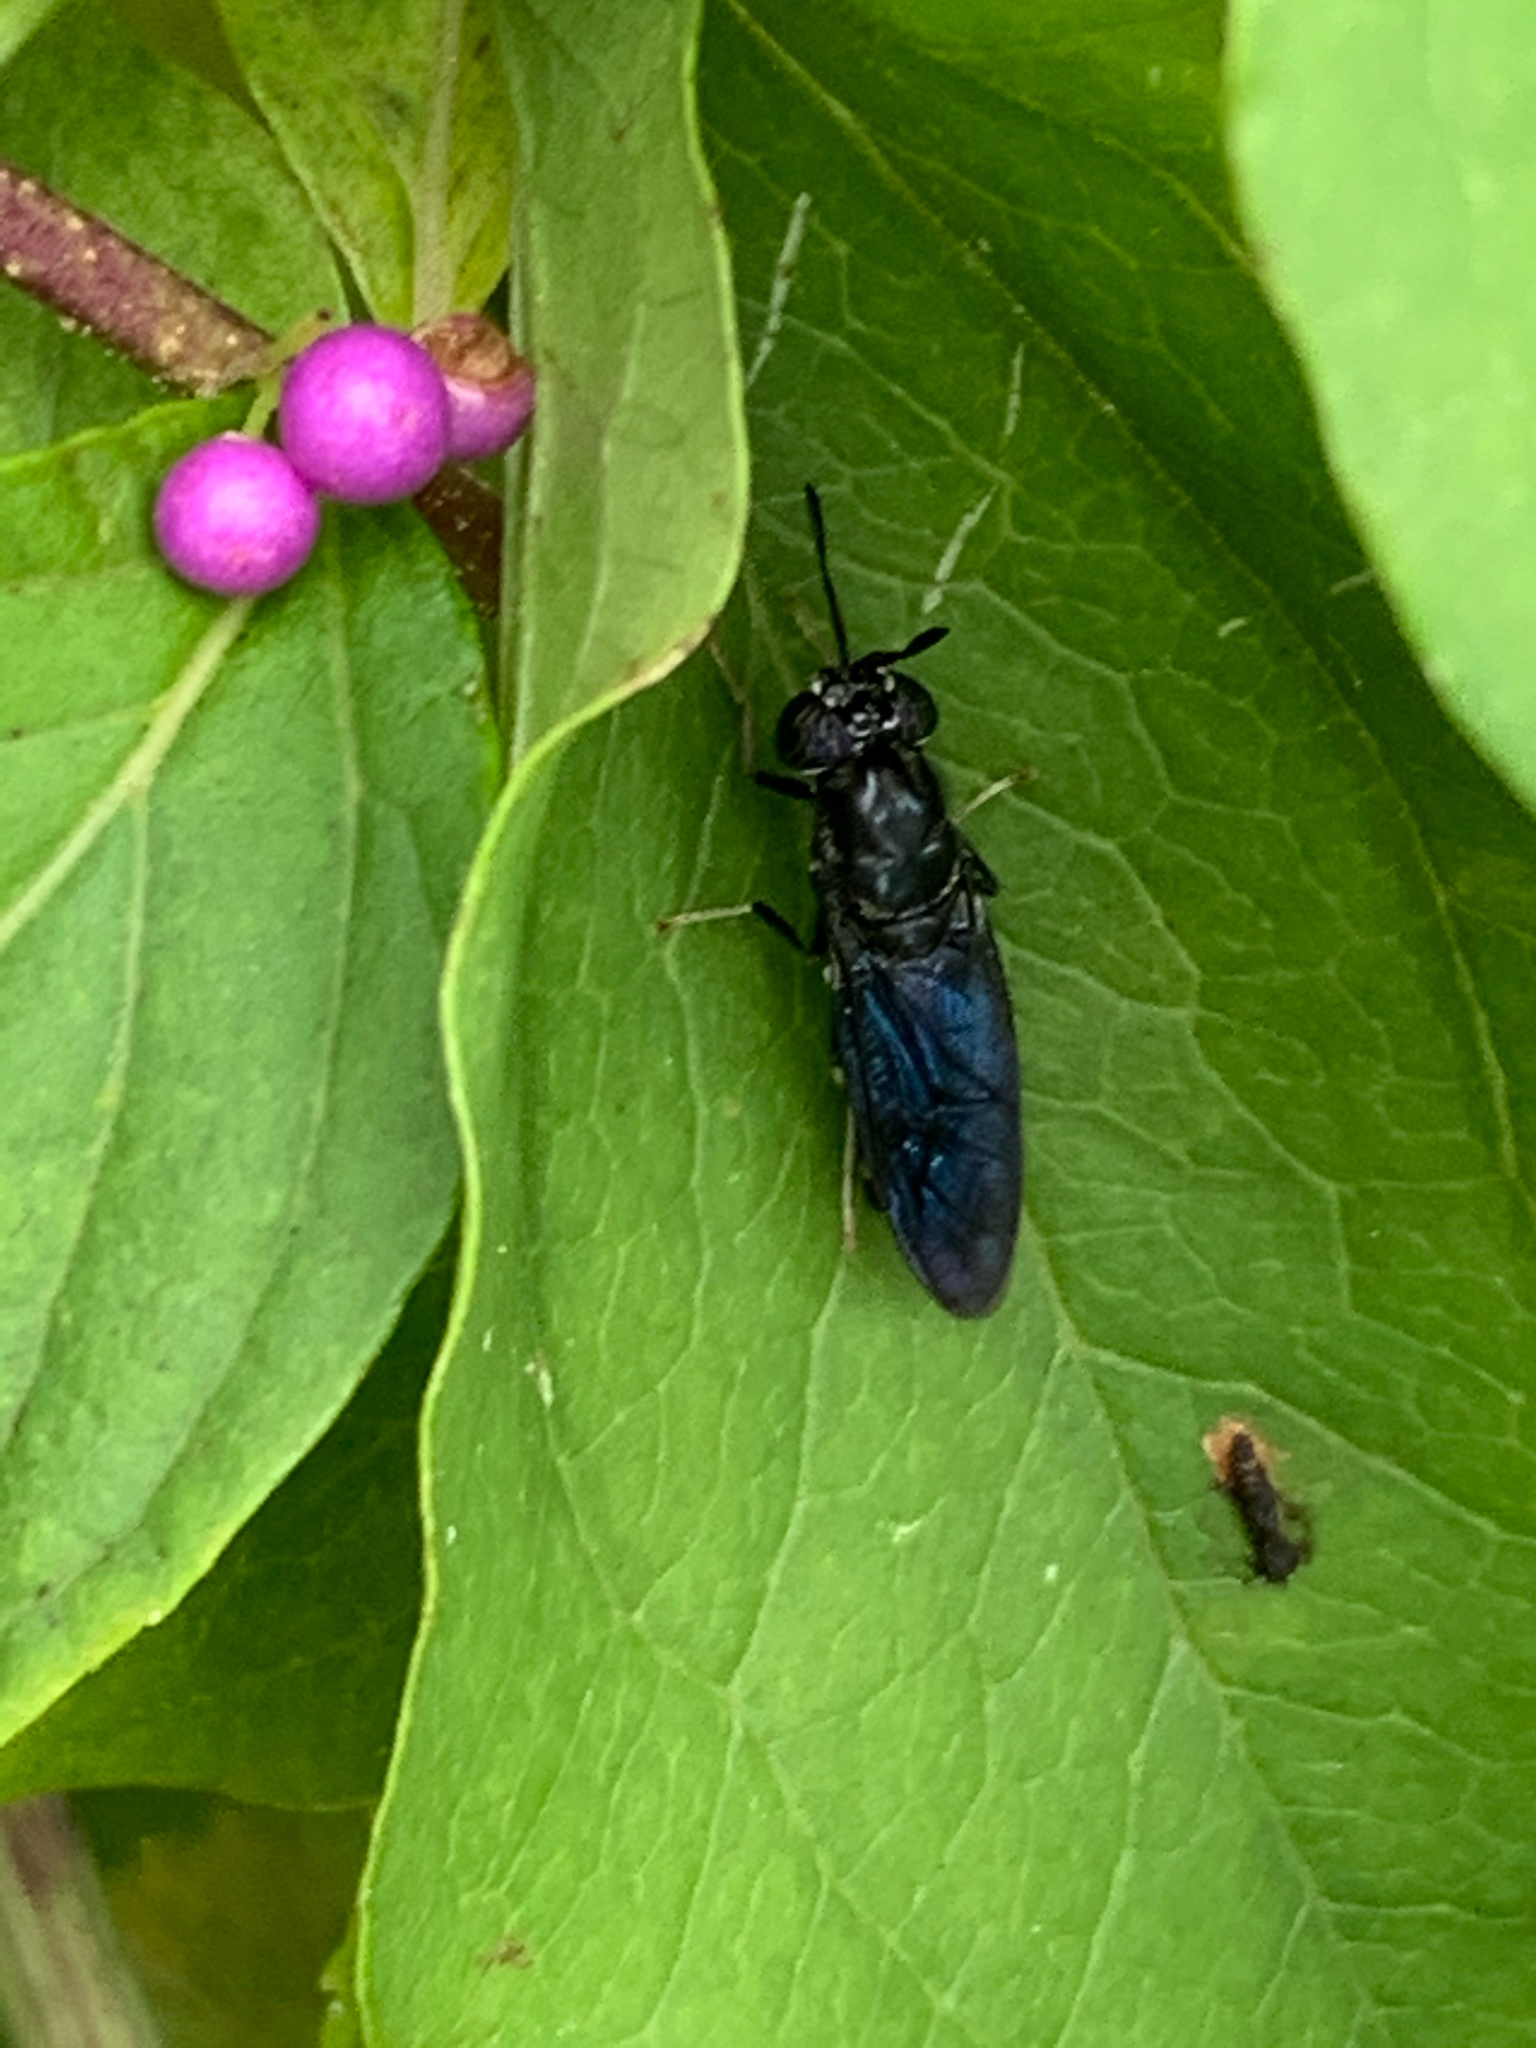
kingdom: Animalia
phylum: Arthropoda
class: Insecta
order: Diptera
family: Stratiomyidae
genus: Hermetia
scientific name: Hermetia illucens
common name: Black soldier fly
